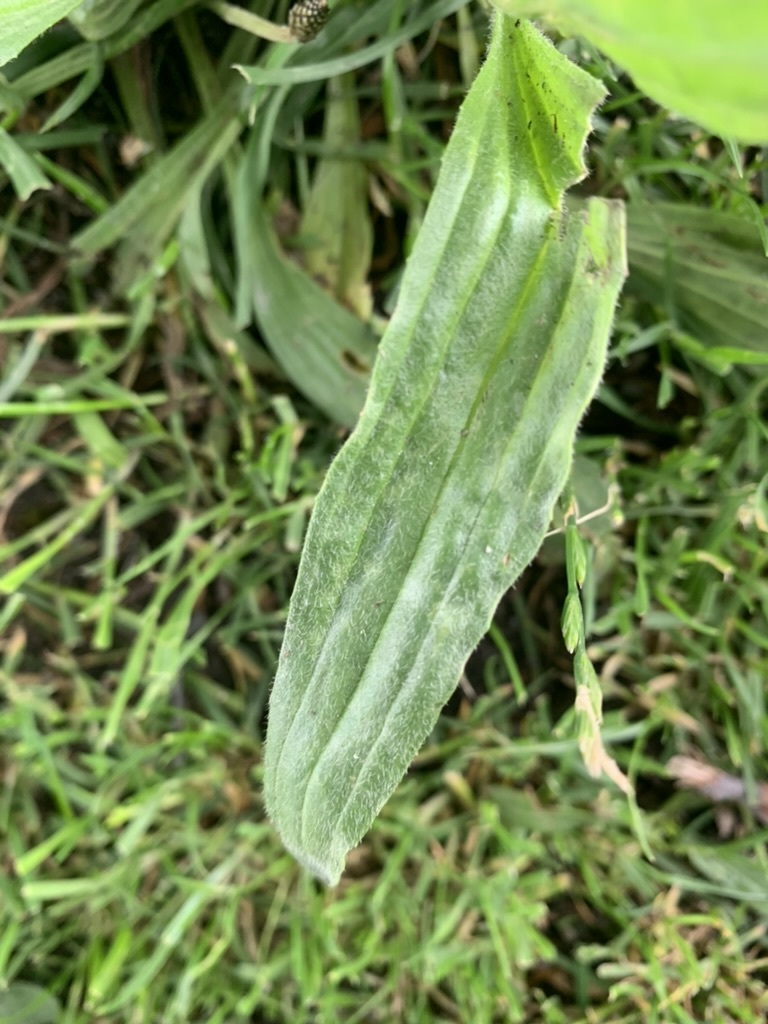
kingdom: Plantae
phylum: Tracheophyta
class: Magnoliopsida
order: Lamiales
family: Plantaginaceae
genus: Plantago
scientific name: Plantago lanceolata
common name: Ribwort plantain
